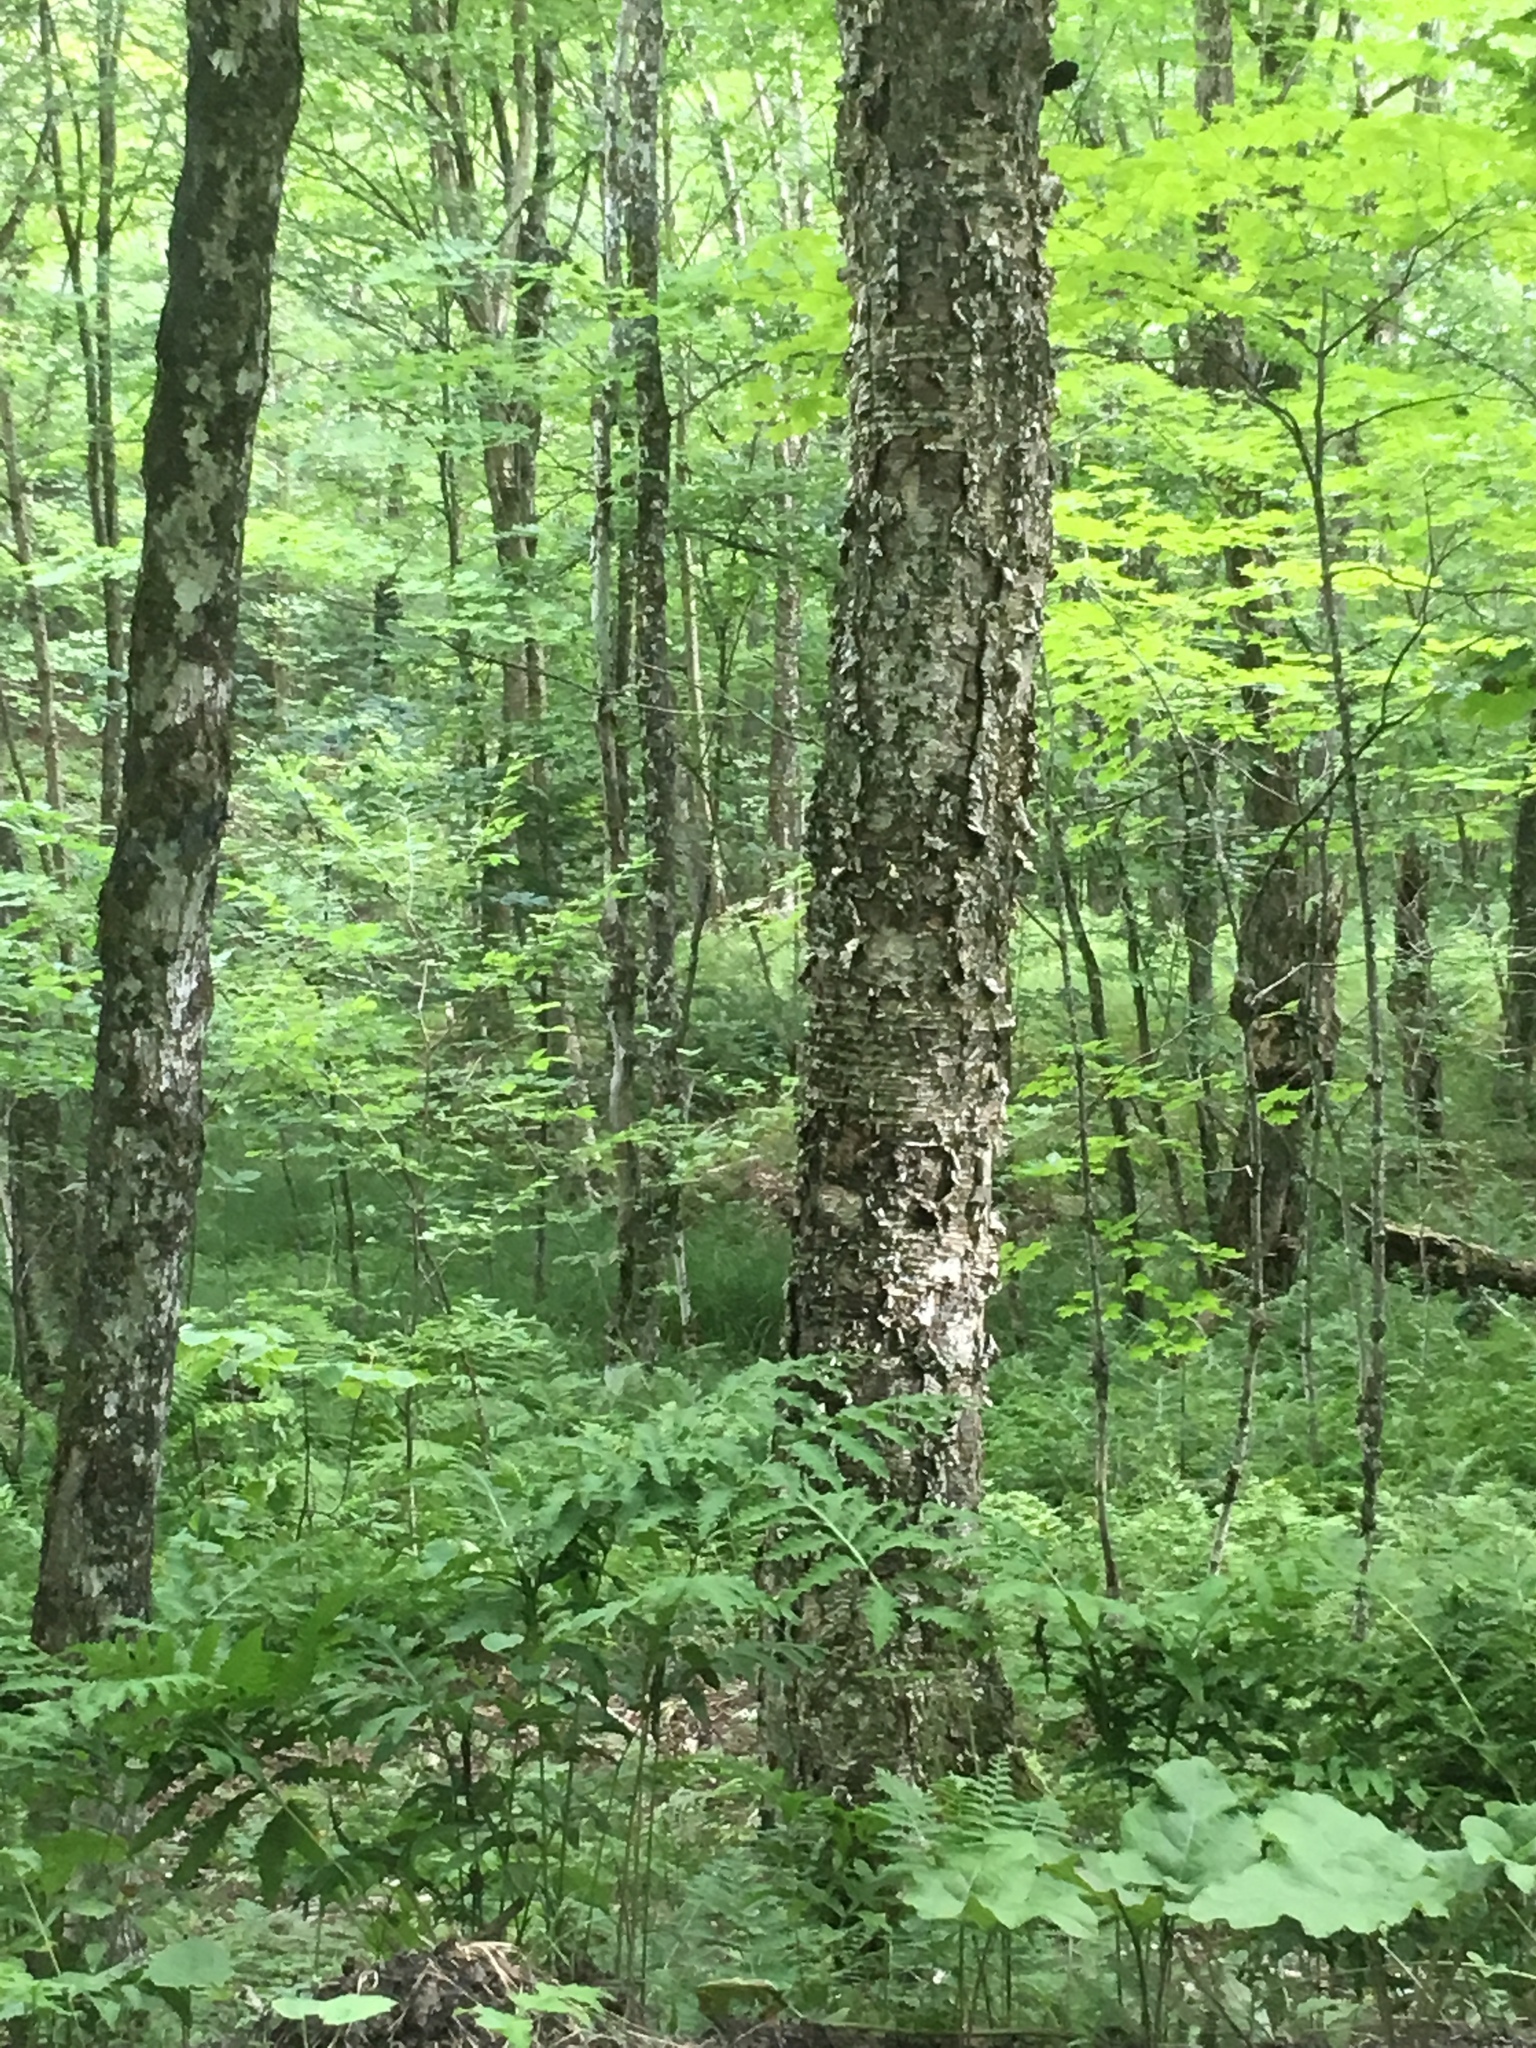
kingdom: Plantae
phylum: Tracheophyta
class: Polypodiopsida
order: Polypodiales
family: Onocleaceae
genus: Onoclea
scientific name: Onoclea sensibilis
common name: Sensitive fern
